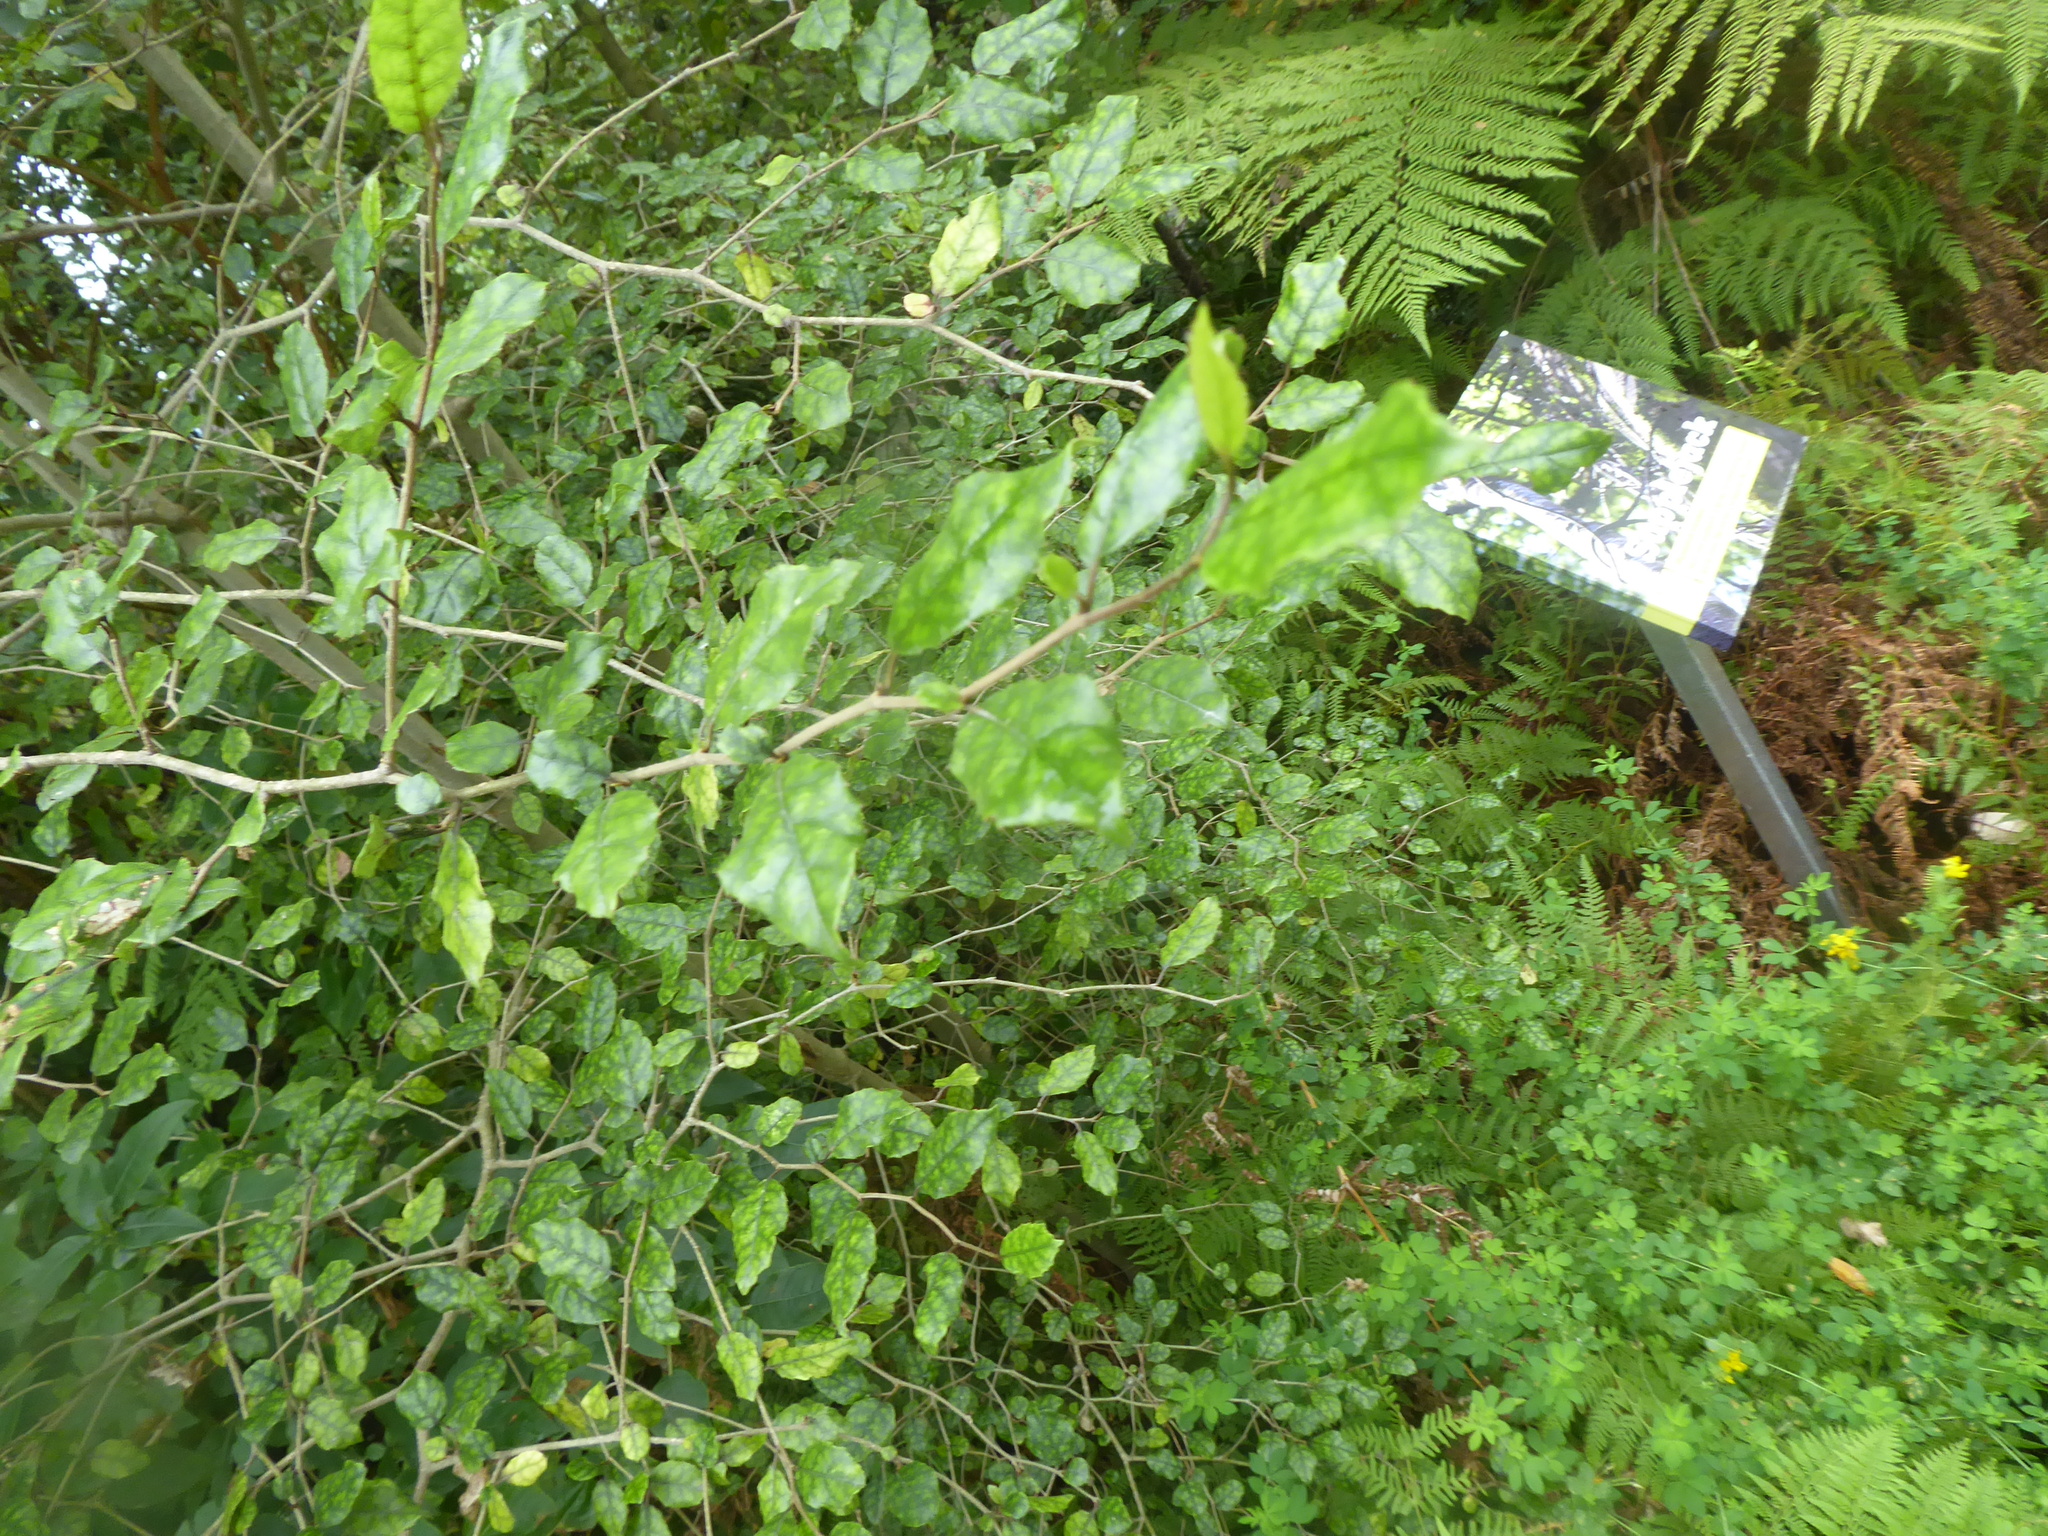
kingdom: Plantae
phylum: Tracheophyta
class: Magnoliopsida
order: Asterales
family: Rousseaceae
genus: Carpodetus
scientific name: Carpodetus serratus
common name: White mapau
